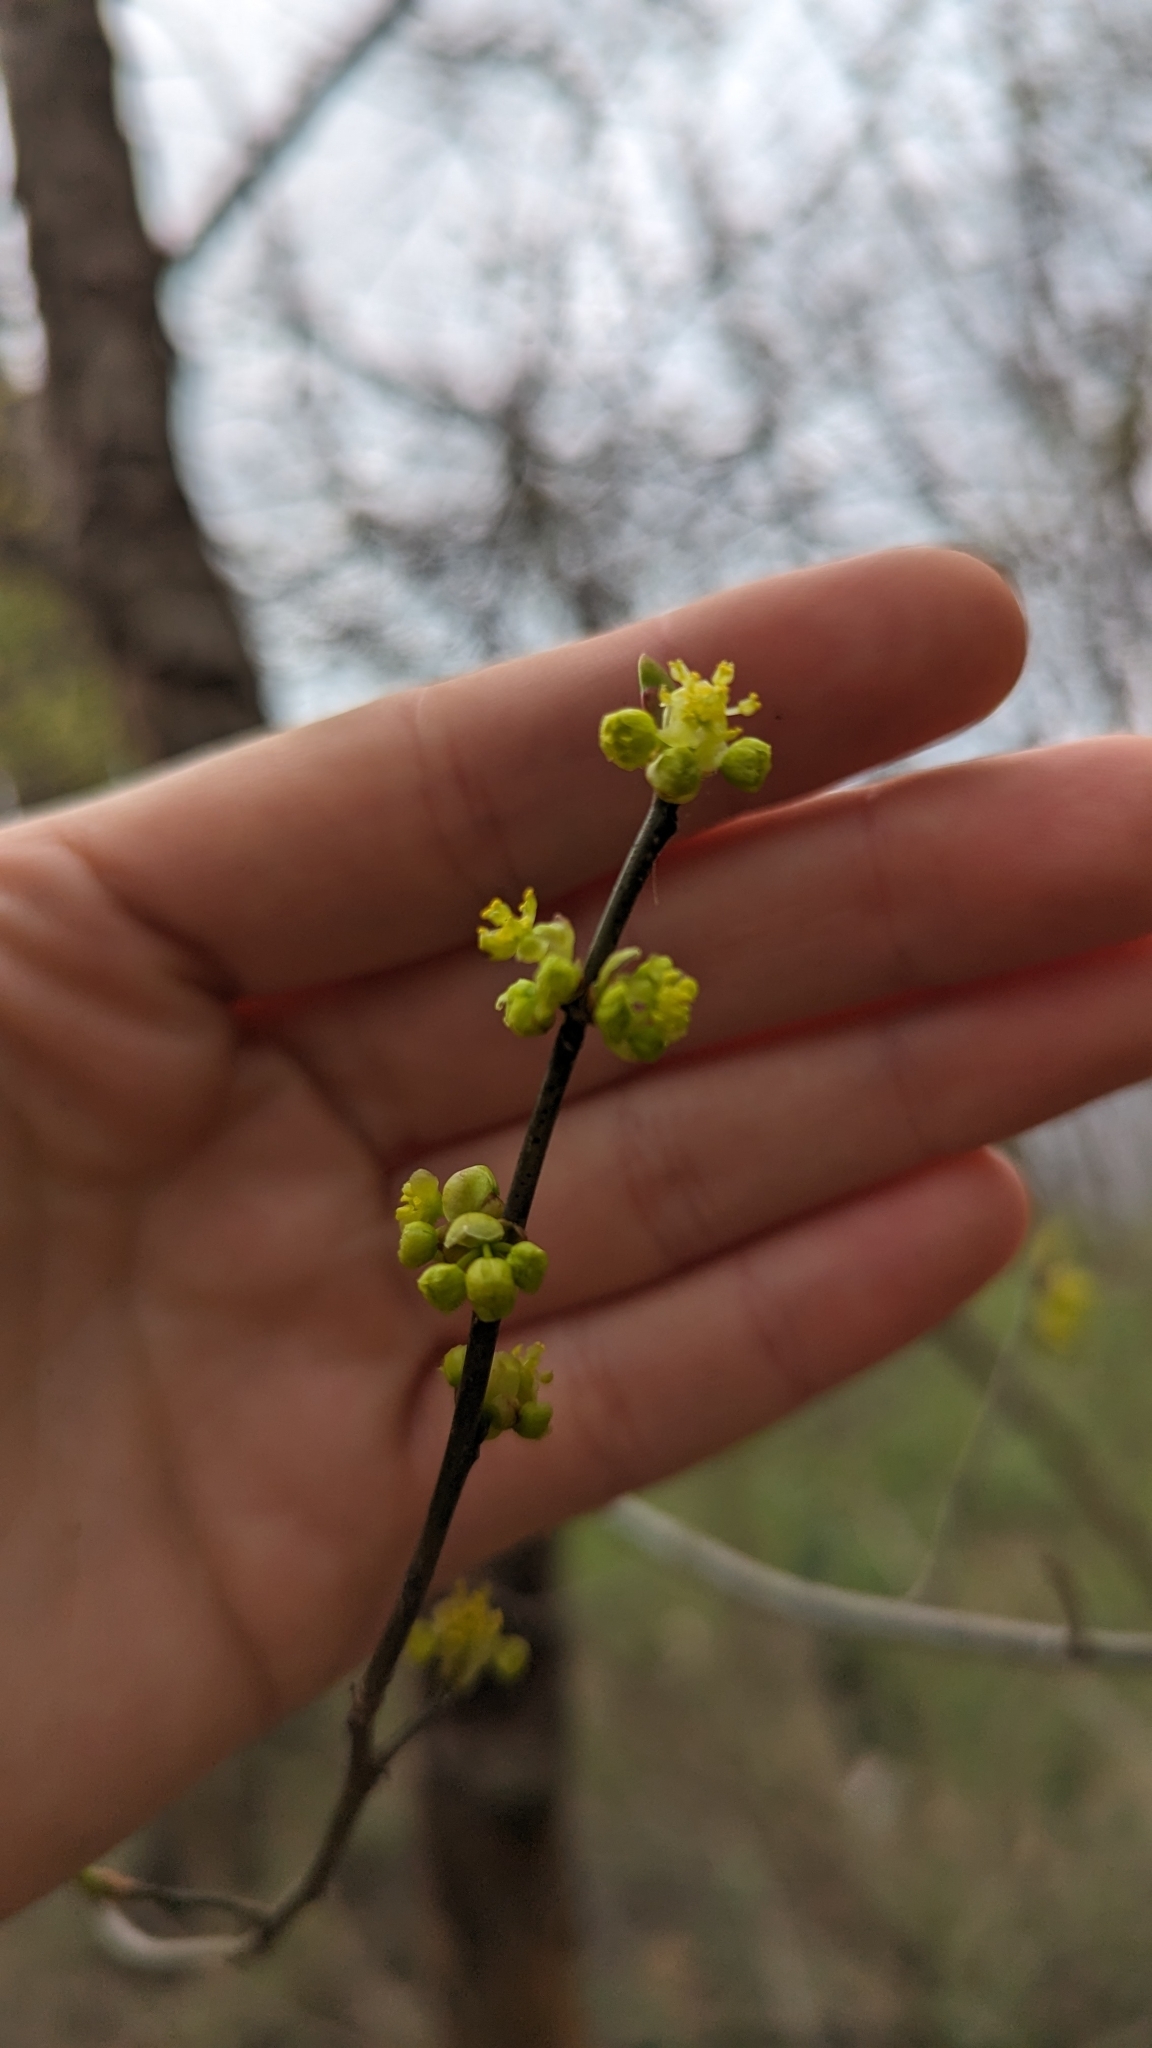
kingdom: Plantae
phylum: Tracheophyta
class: Magnoliopsida
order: Laurales
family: Lauraceae
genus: Lindera
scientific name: Lindera benzoin
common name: Spicebush
